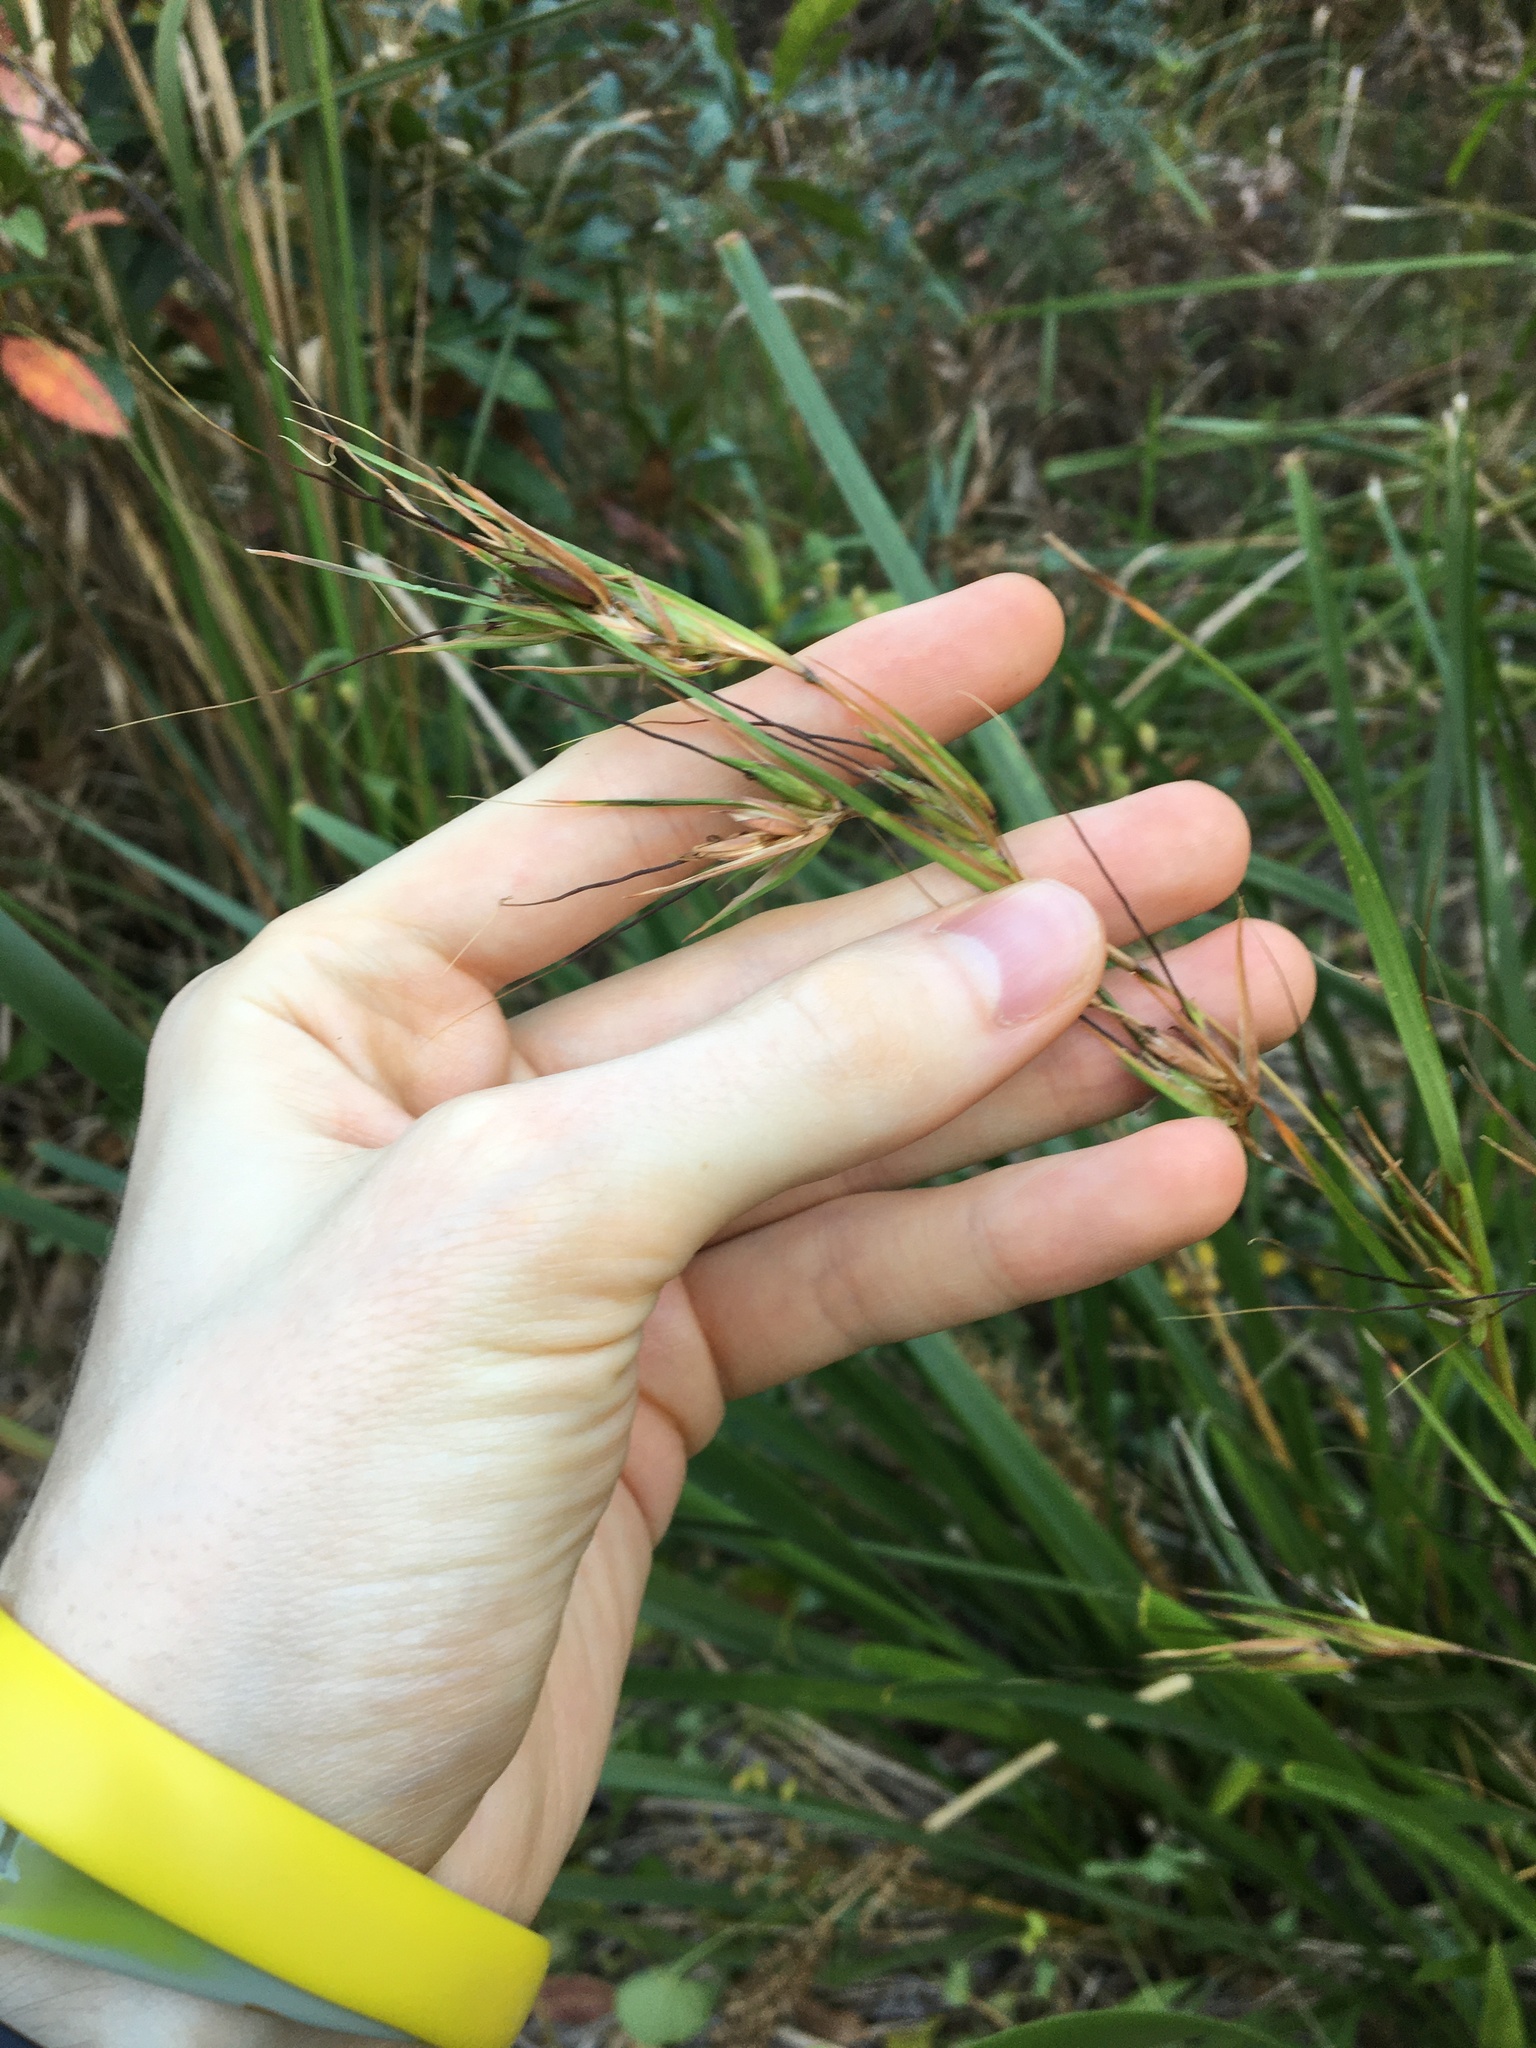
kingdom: Plantae
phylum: Tracheophyta
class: Liliopsida
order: Poales
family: Poaceae
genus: Themeda
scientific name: Themeda triandra
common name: Kangaroo grass
